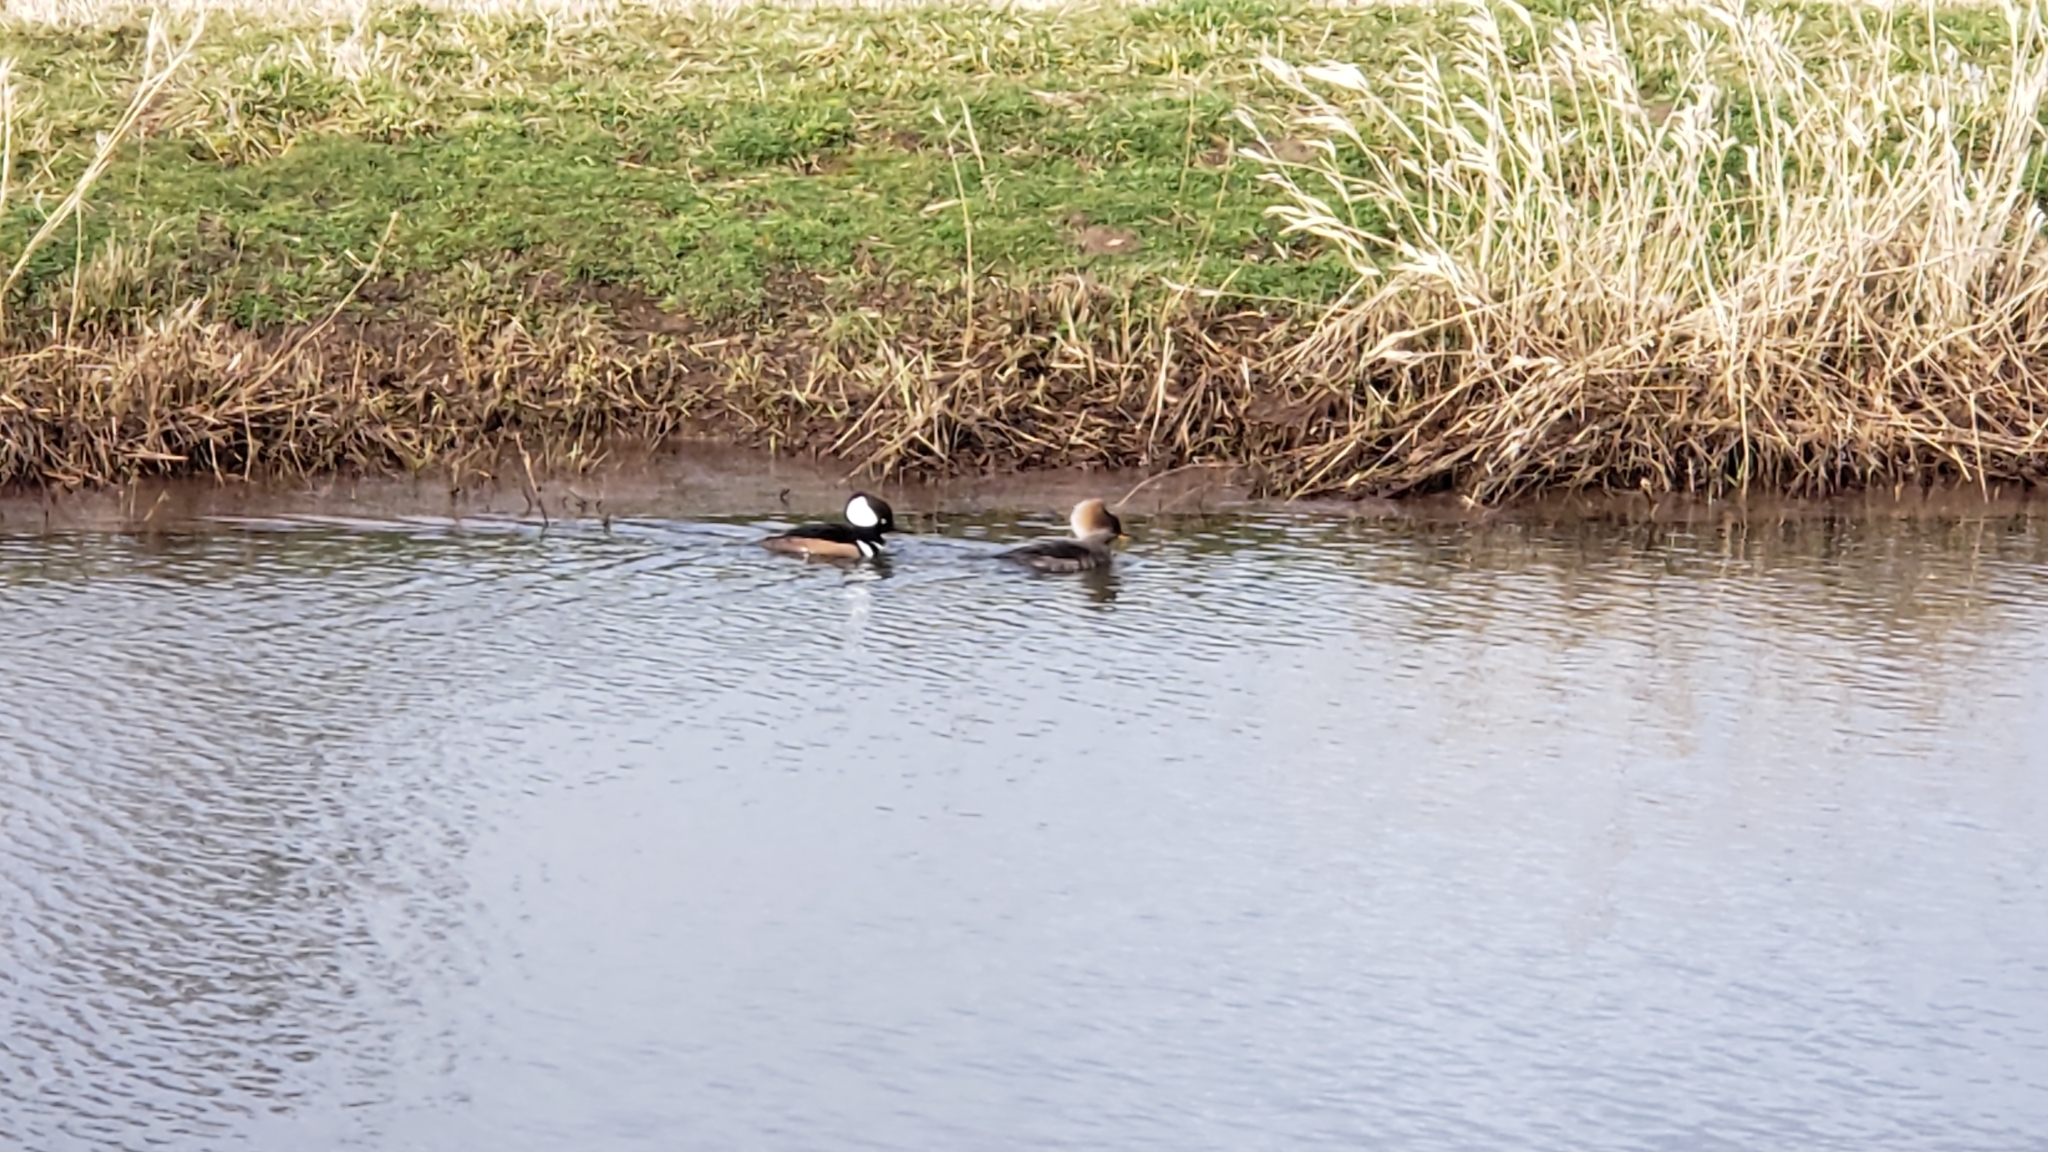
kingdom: Animalia
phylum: Chordata
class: Aves
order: Anseriformes
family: Anatidae
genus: Lophodytes
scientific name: Lophodytes cucullatus
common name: Hooded merganser
